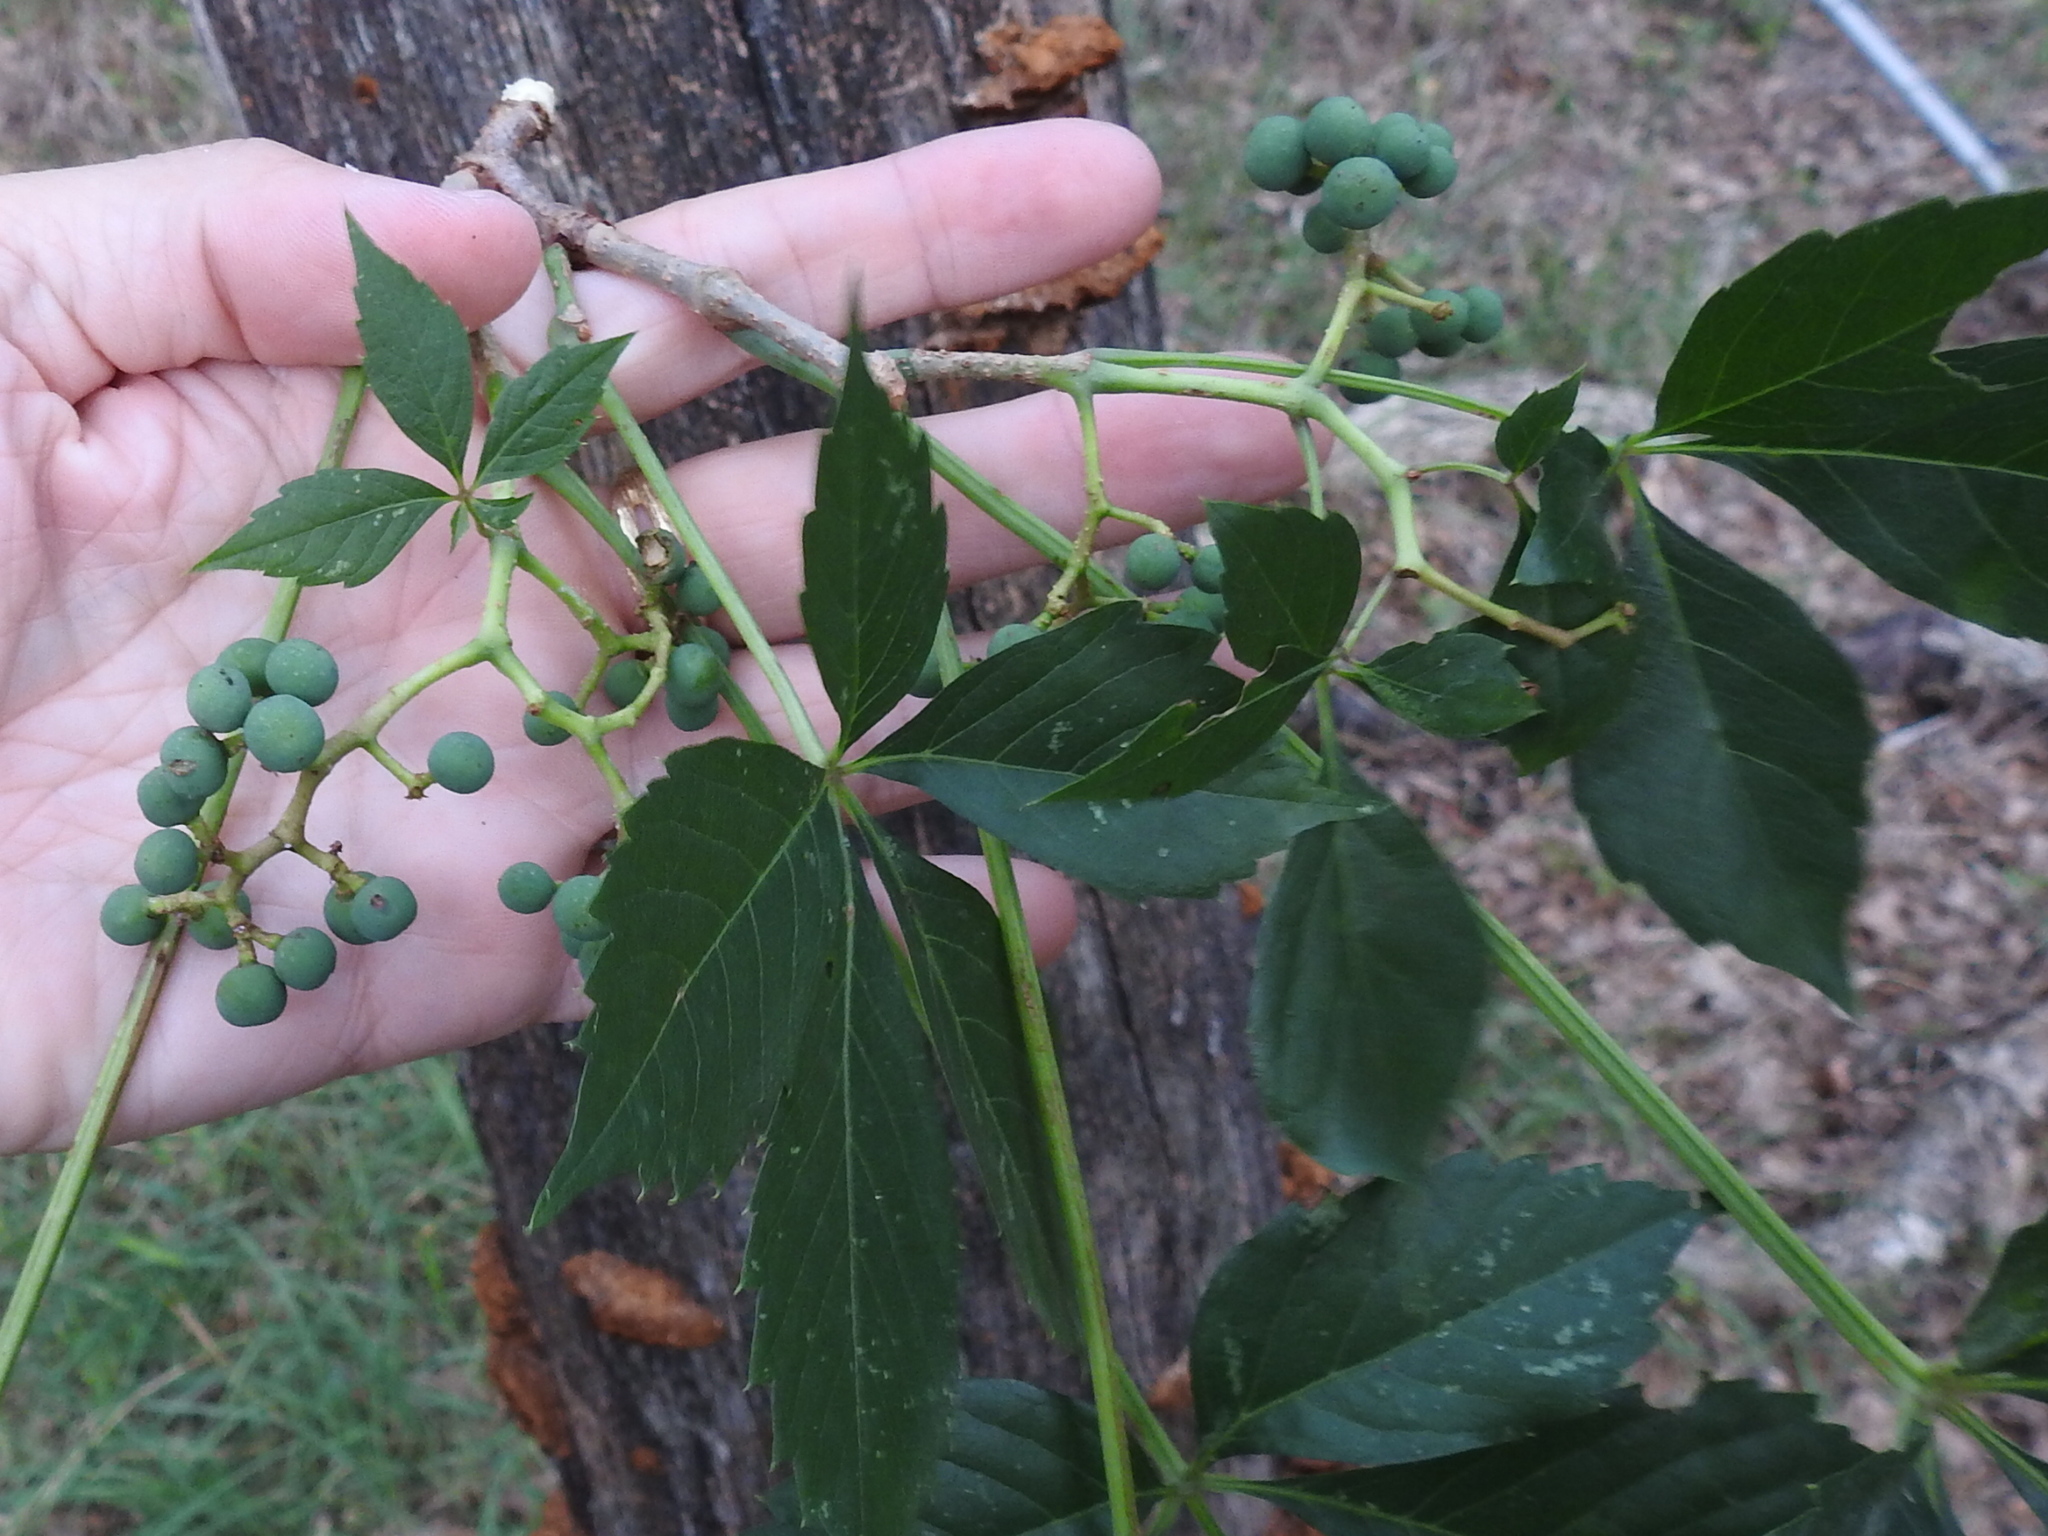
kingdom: Plantae
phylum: Tracheophyta
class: Magnoliopsida
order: Vitales
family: Vitaceae
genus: Parthenocissus
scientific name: Parthenocissus quinquefolia
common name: Virginia-creeper
